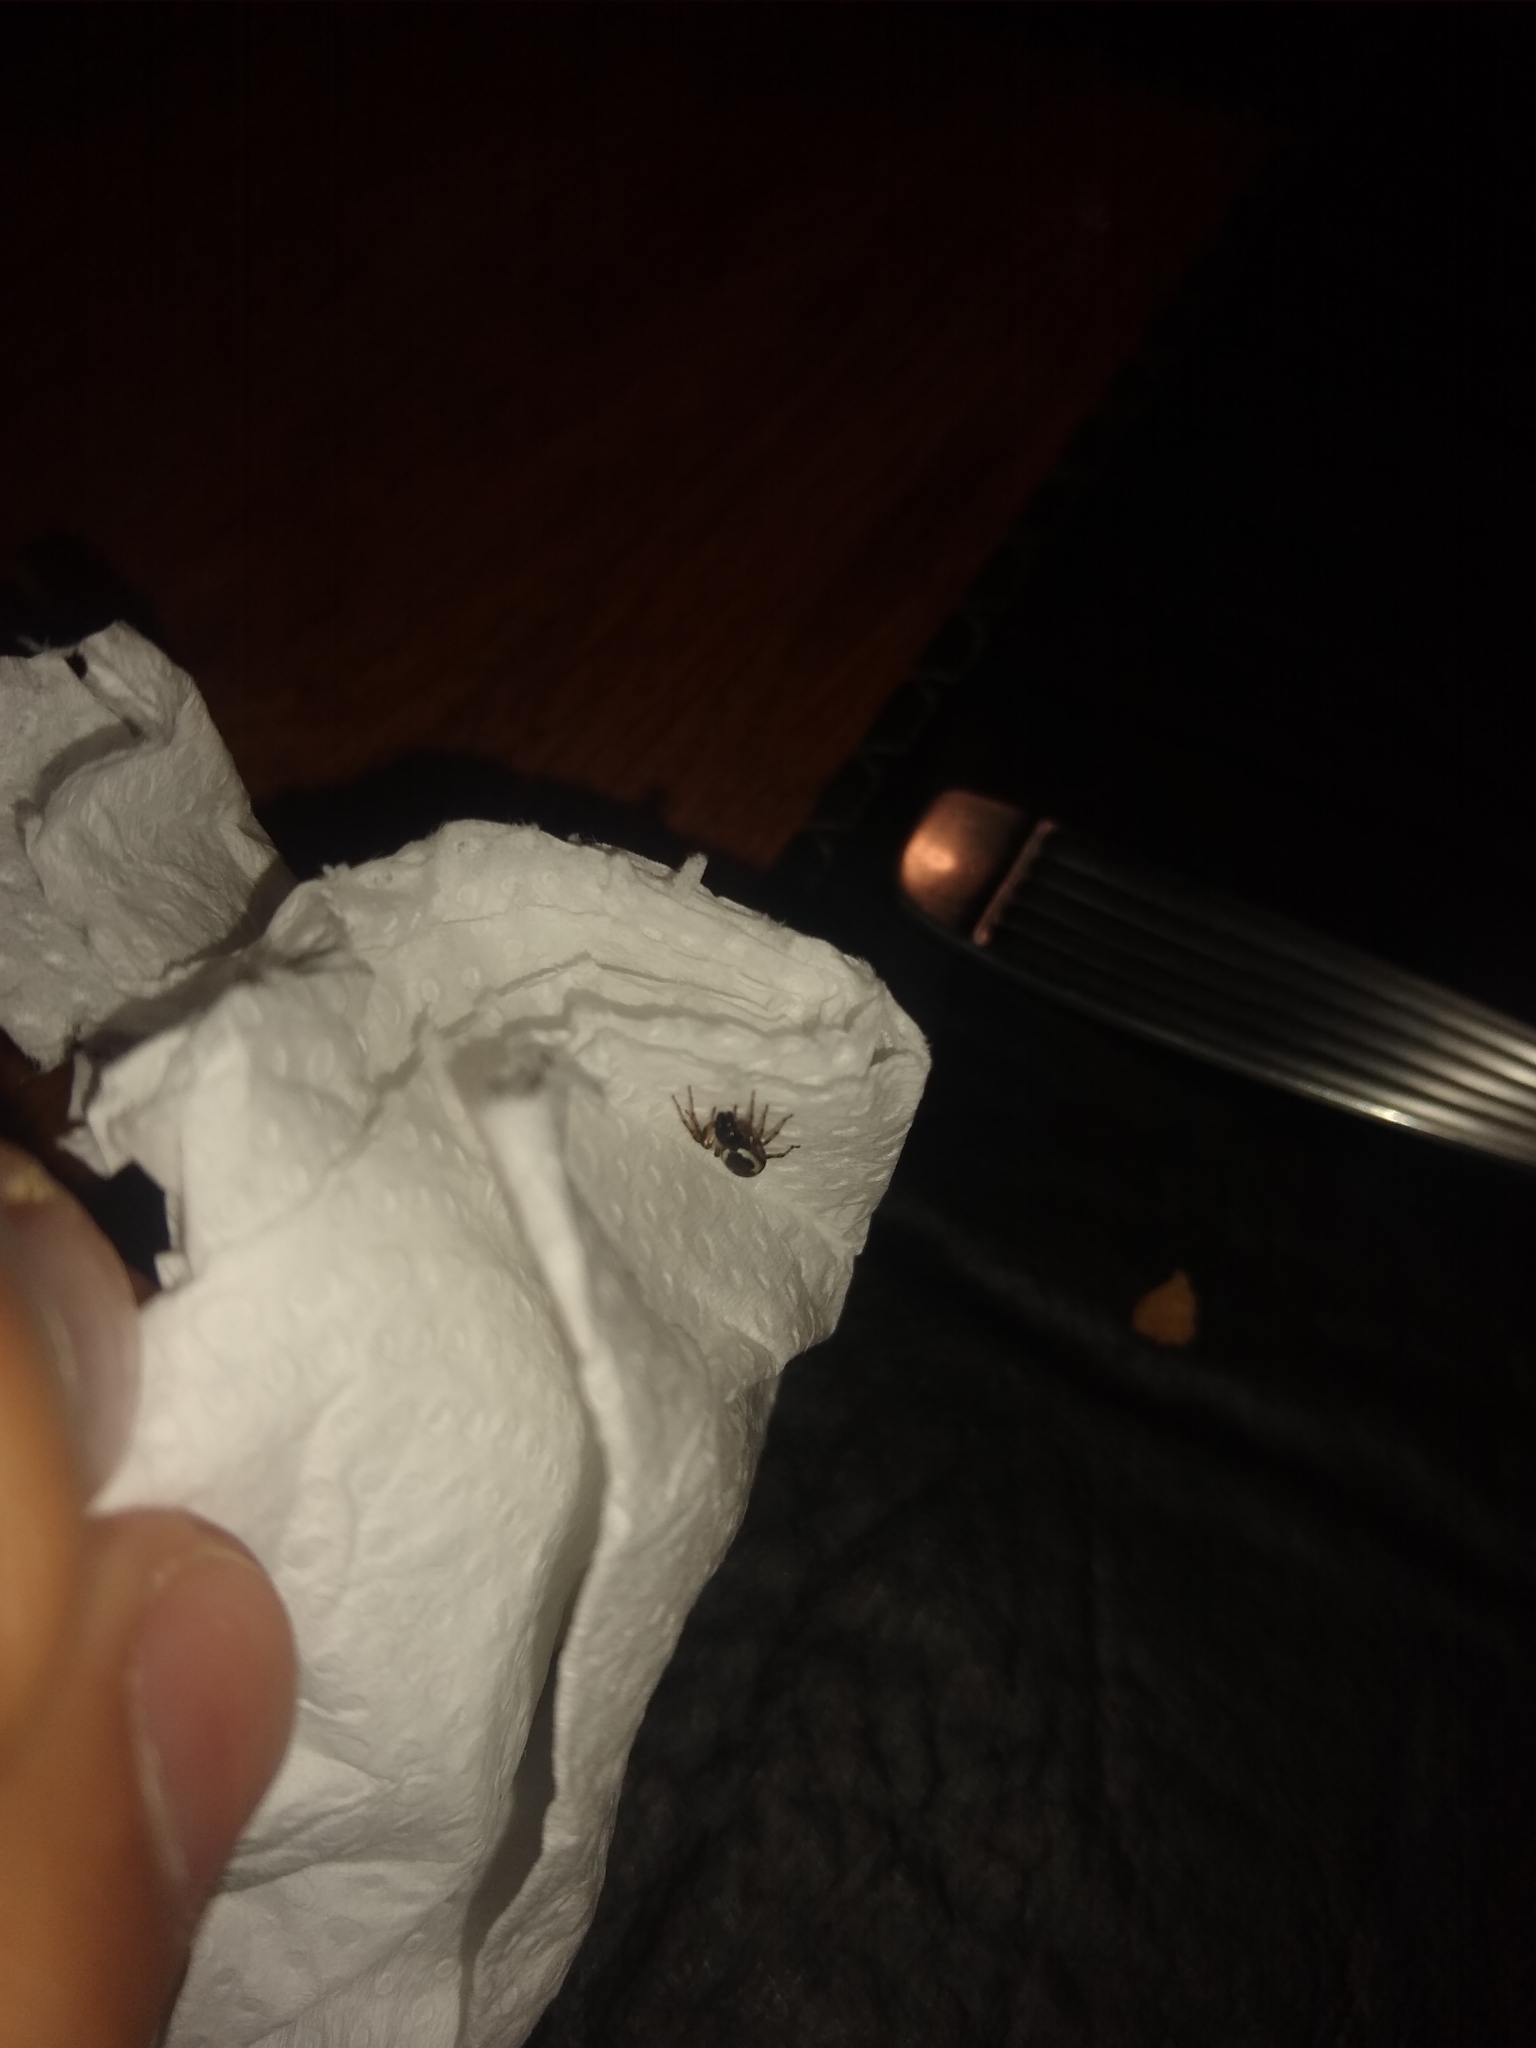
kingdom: Animalia
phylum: Arthropoda
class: Arachnida
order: Araneae
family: Anyphaenidae
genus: Philisca
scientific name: Philisca atrata
